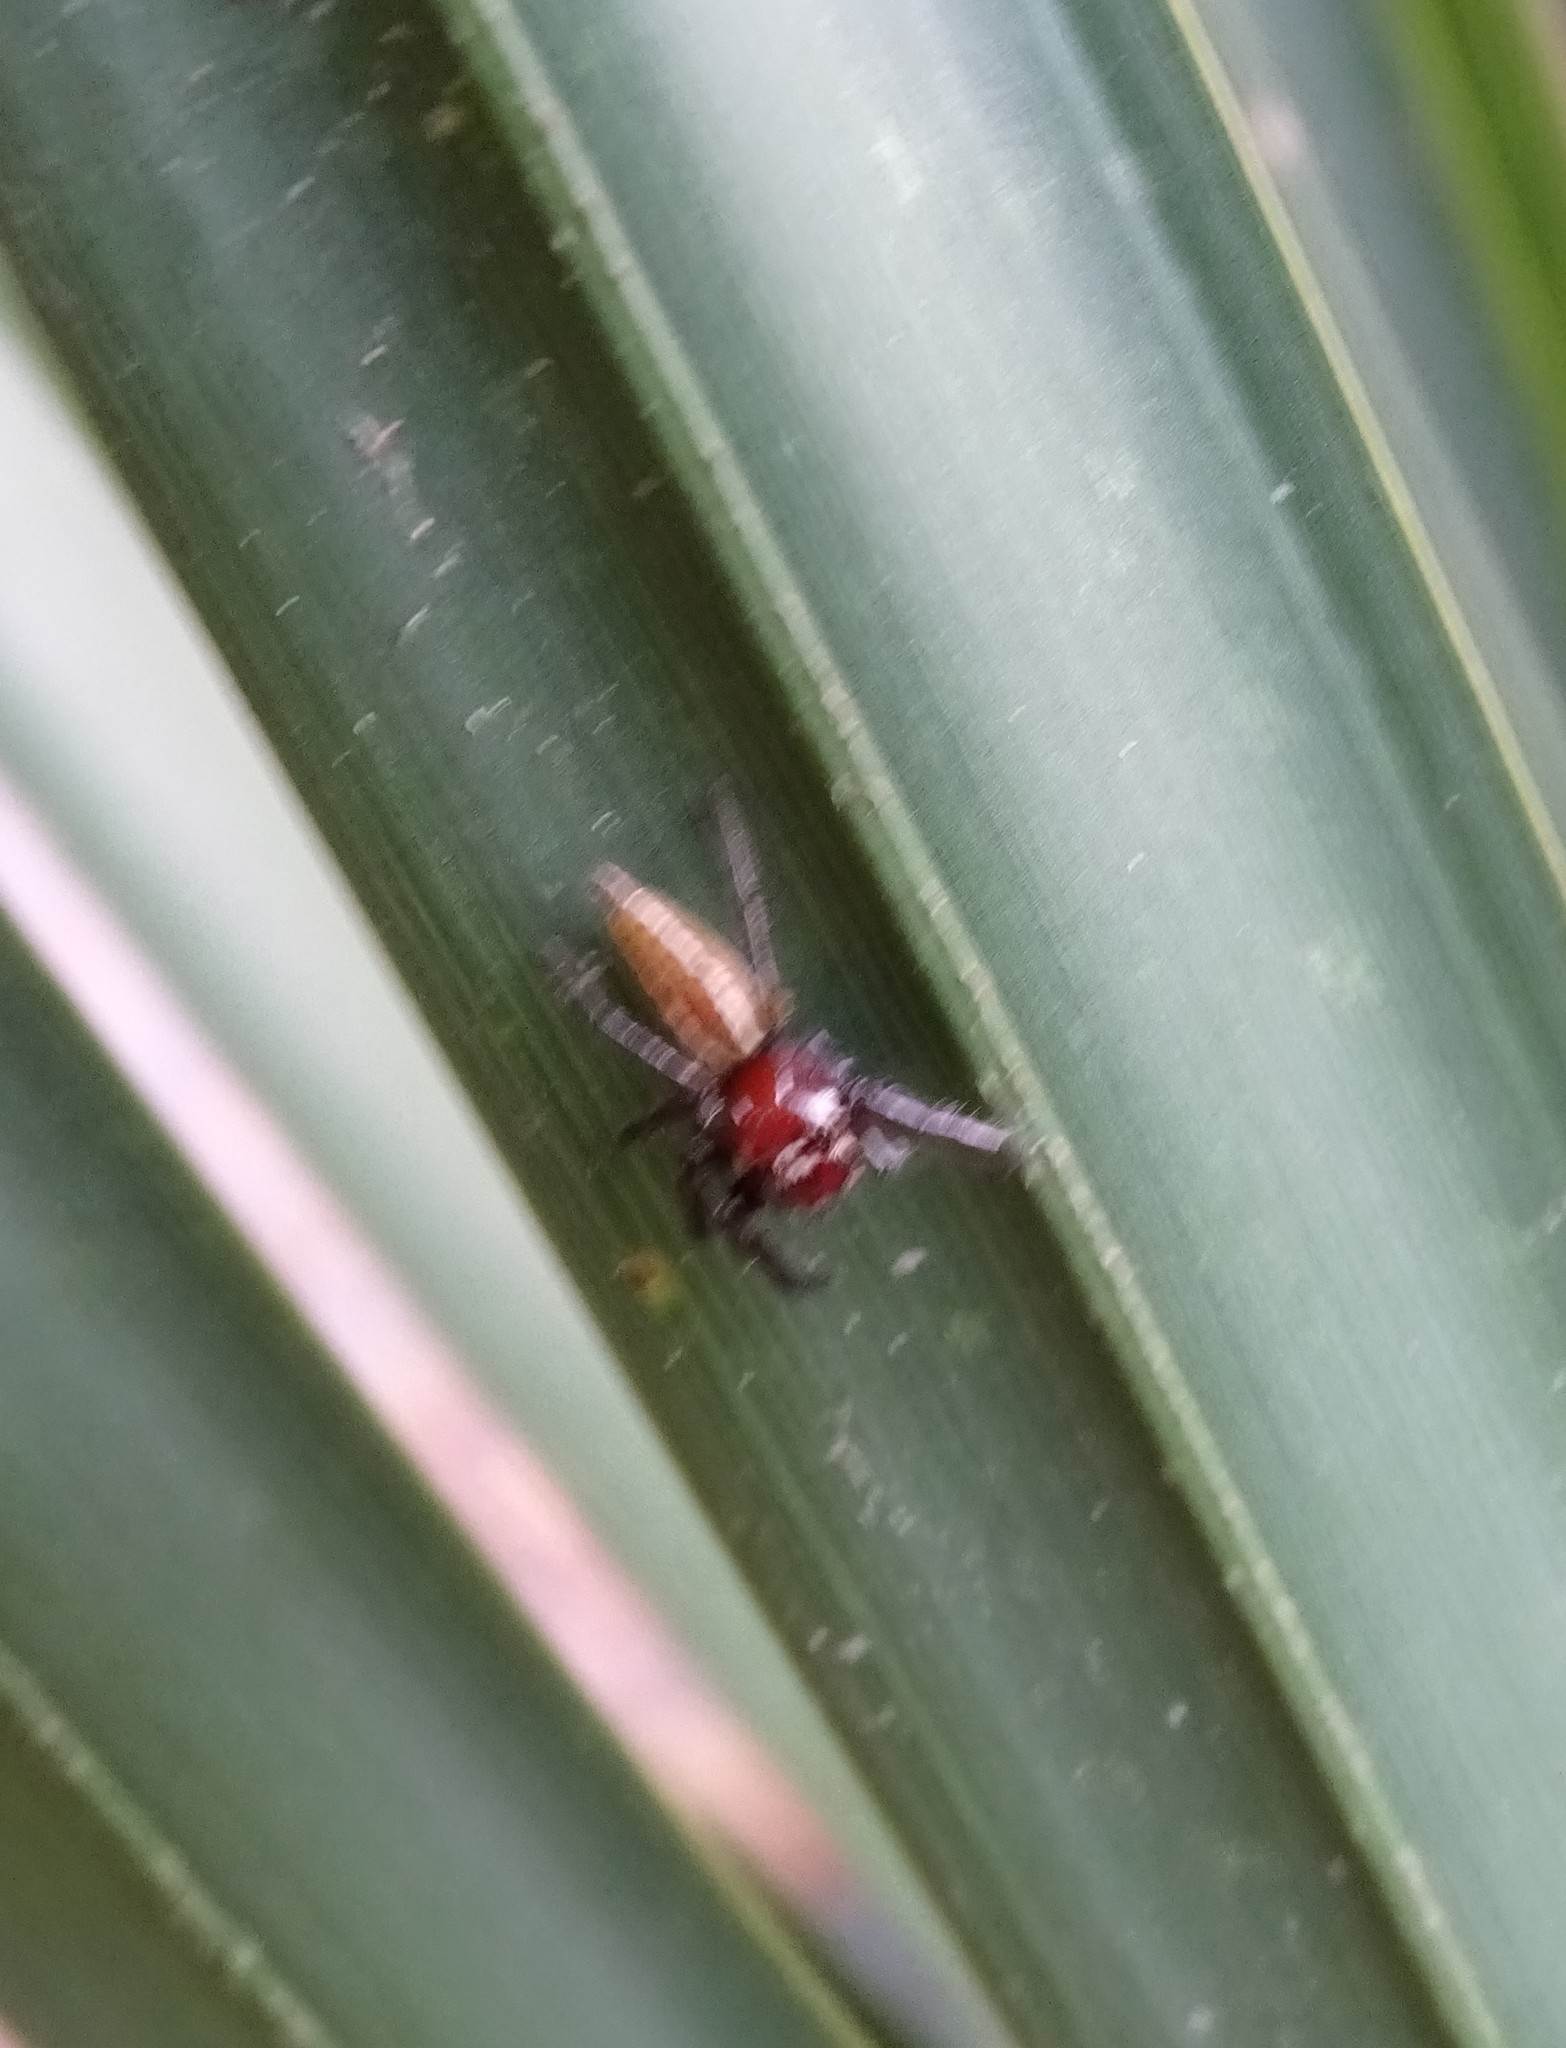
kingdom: Animalia
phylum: Arthropoda
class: Arachnida
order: Araneae
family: Salticidae
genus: Colonus
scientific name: Colonus sylvanus
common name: Jumping spiders
